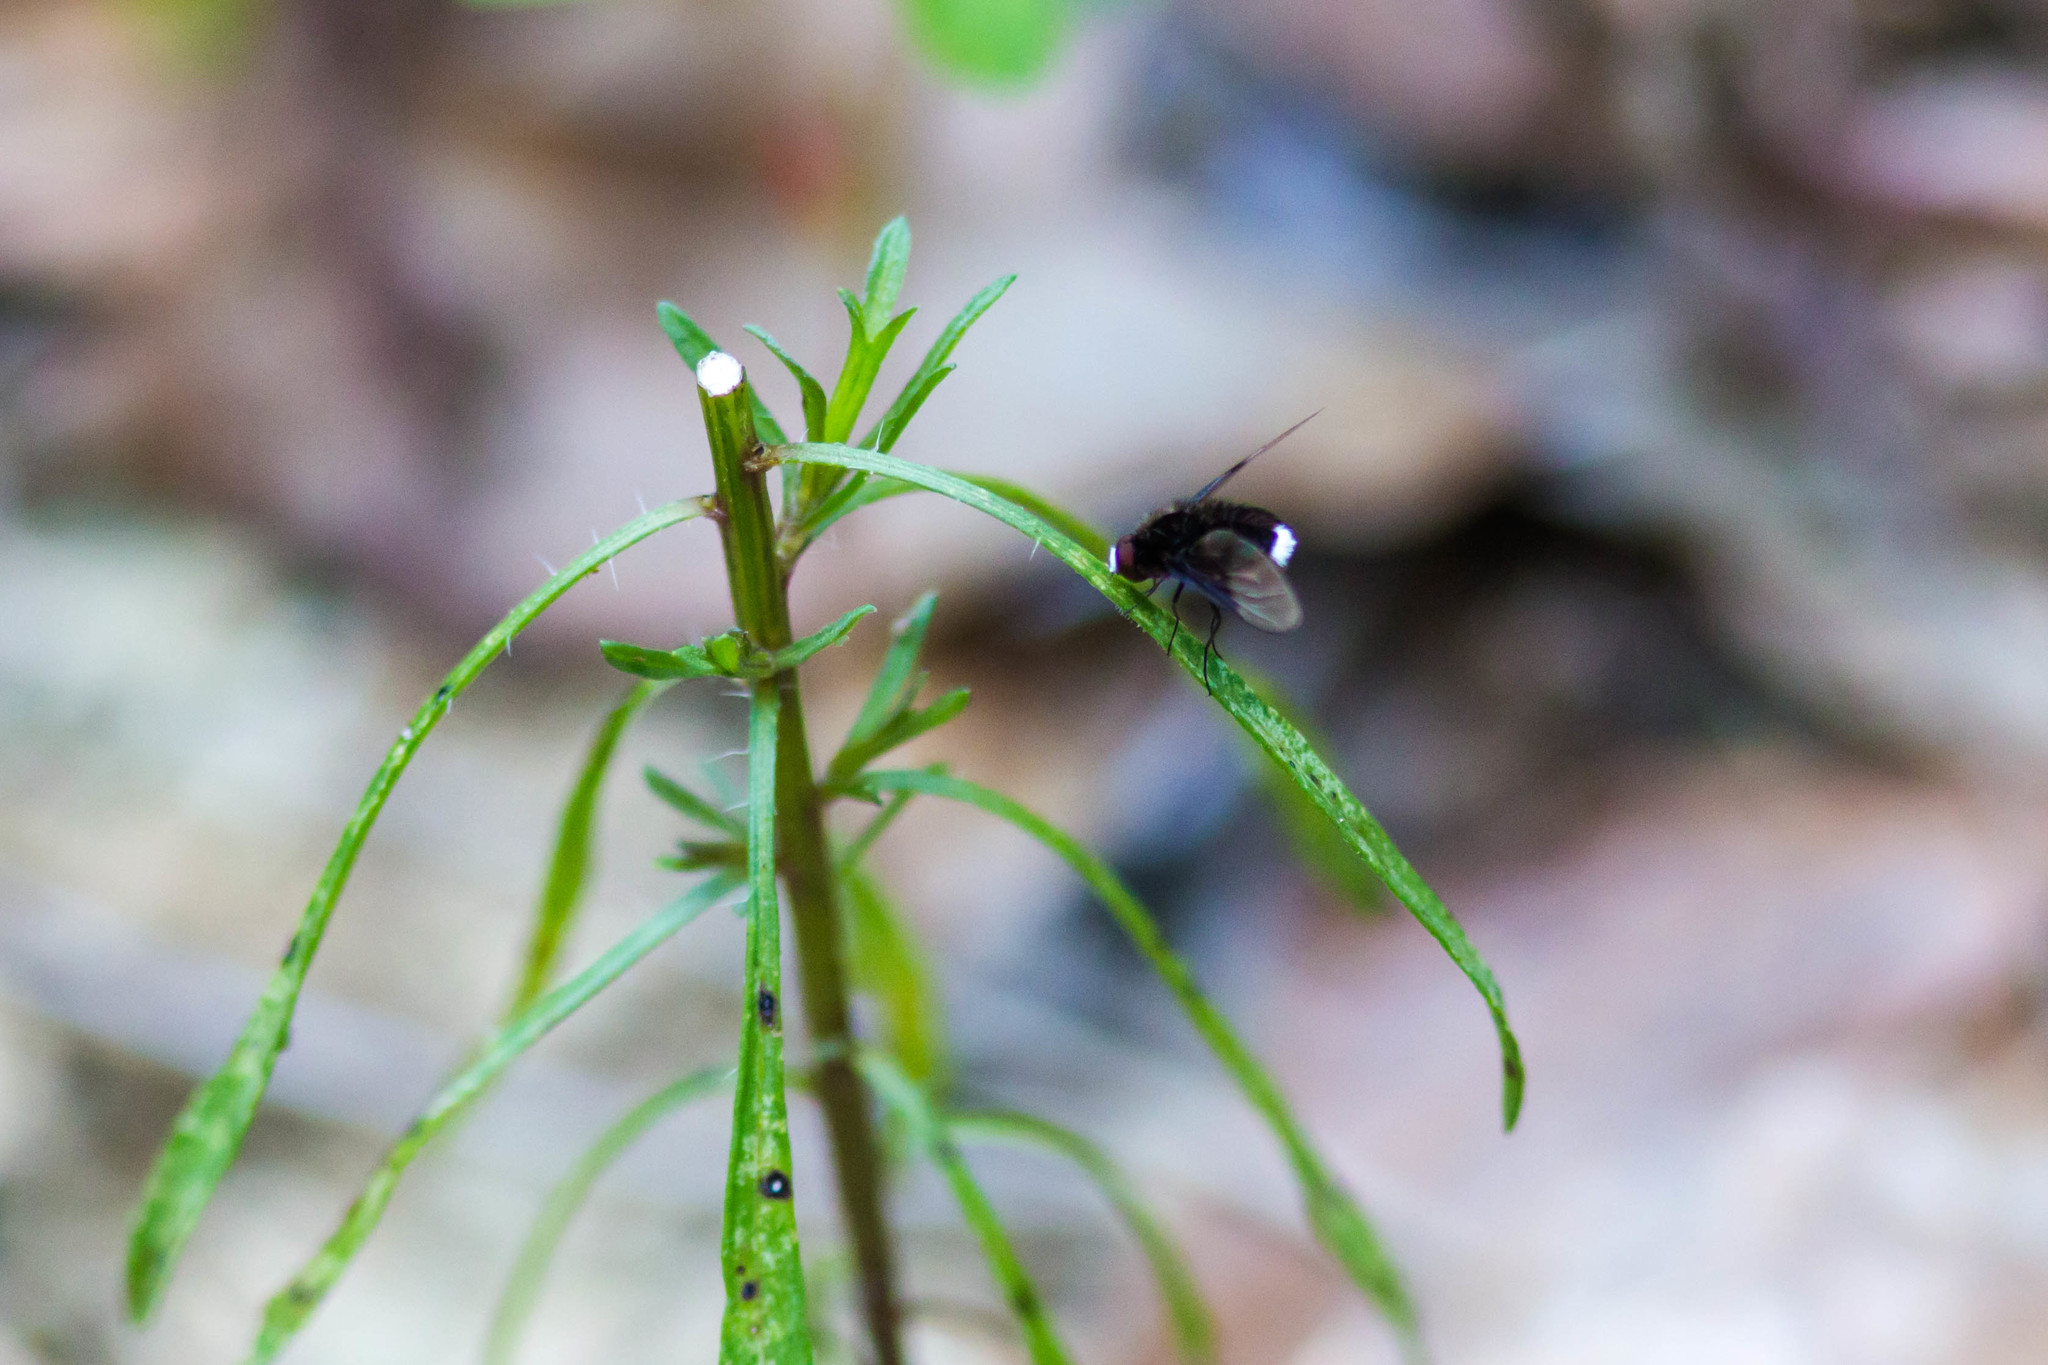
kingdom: Animalia
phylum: Arthropoda
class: Insecta
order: Diptera
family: Bombyliidae
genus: Ogcodocera
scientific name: Ogcodocera leucoprocta
